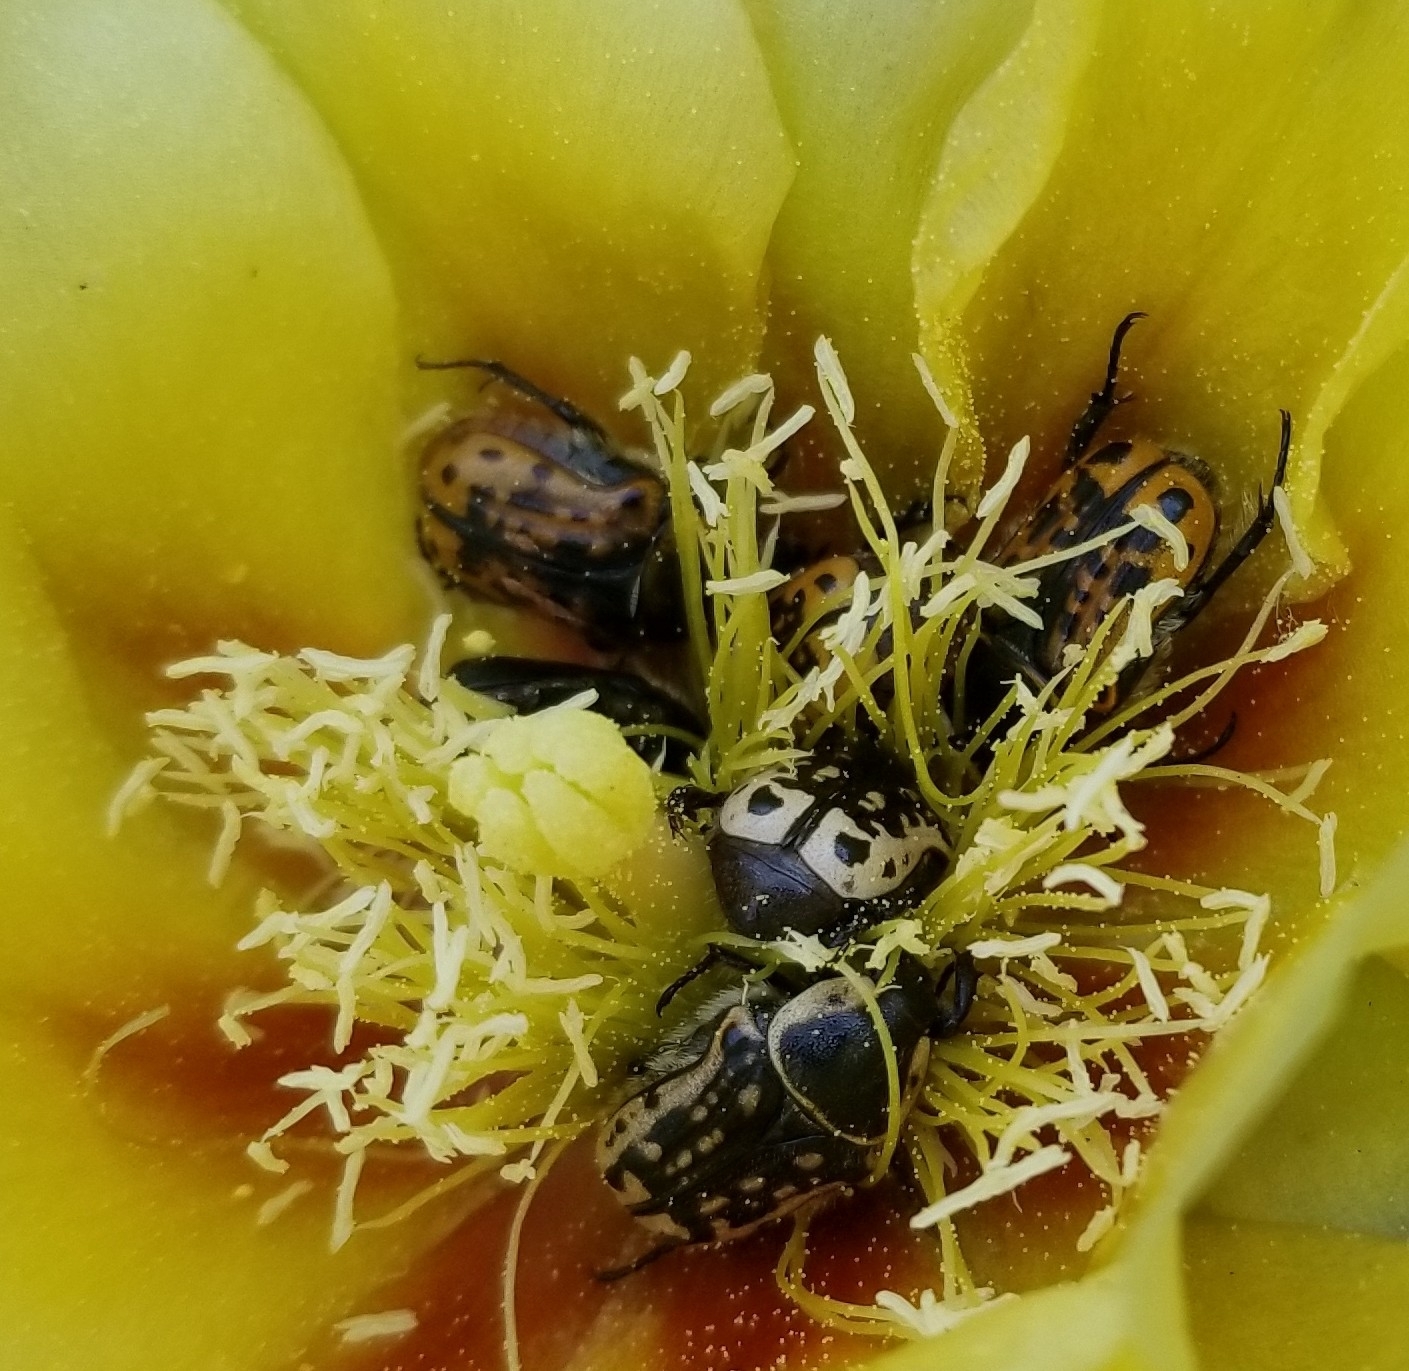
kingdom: Animalia
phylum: Arthropoda
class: Insecta
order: Coleoptera
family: Scarabaeidae
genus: Euphoria
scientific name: Euphoria kernii
